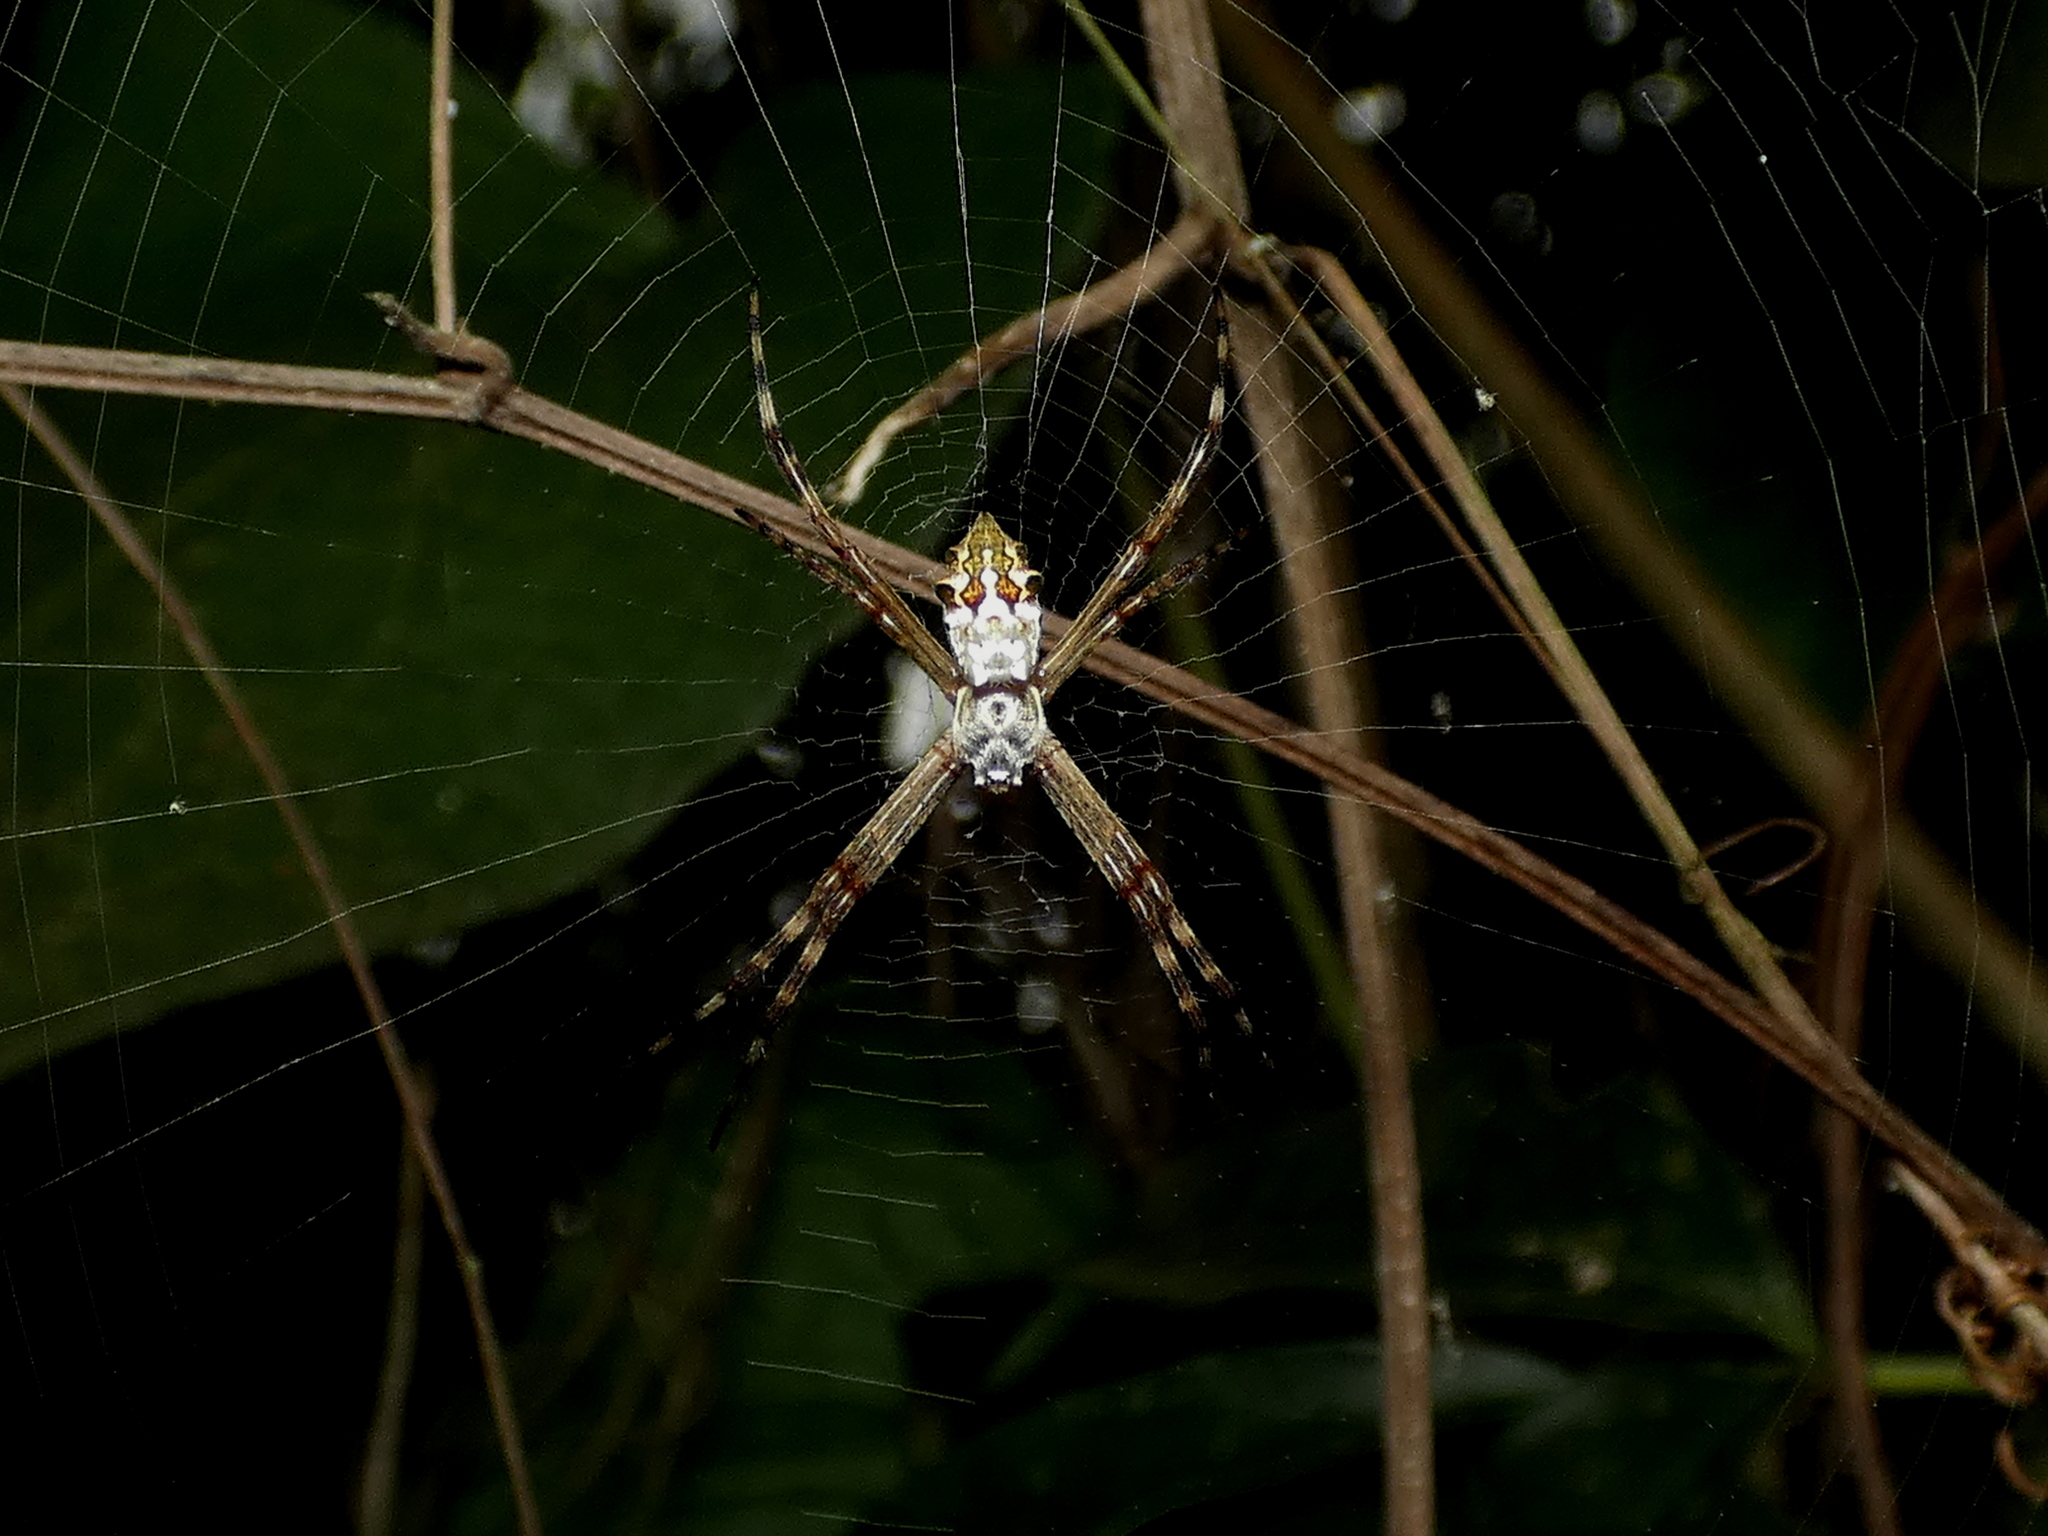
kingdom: Animalia
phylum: Arthropoda
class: Arachnida
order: Araneae
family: Araneidae
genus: Argiope
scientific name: Argiope argentata
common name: Orb weavers
